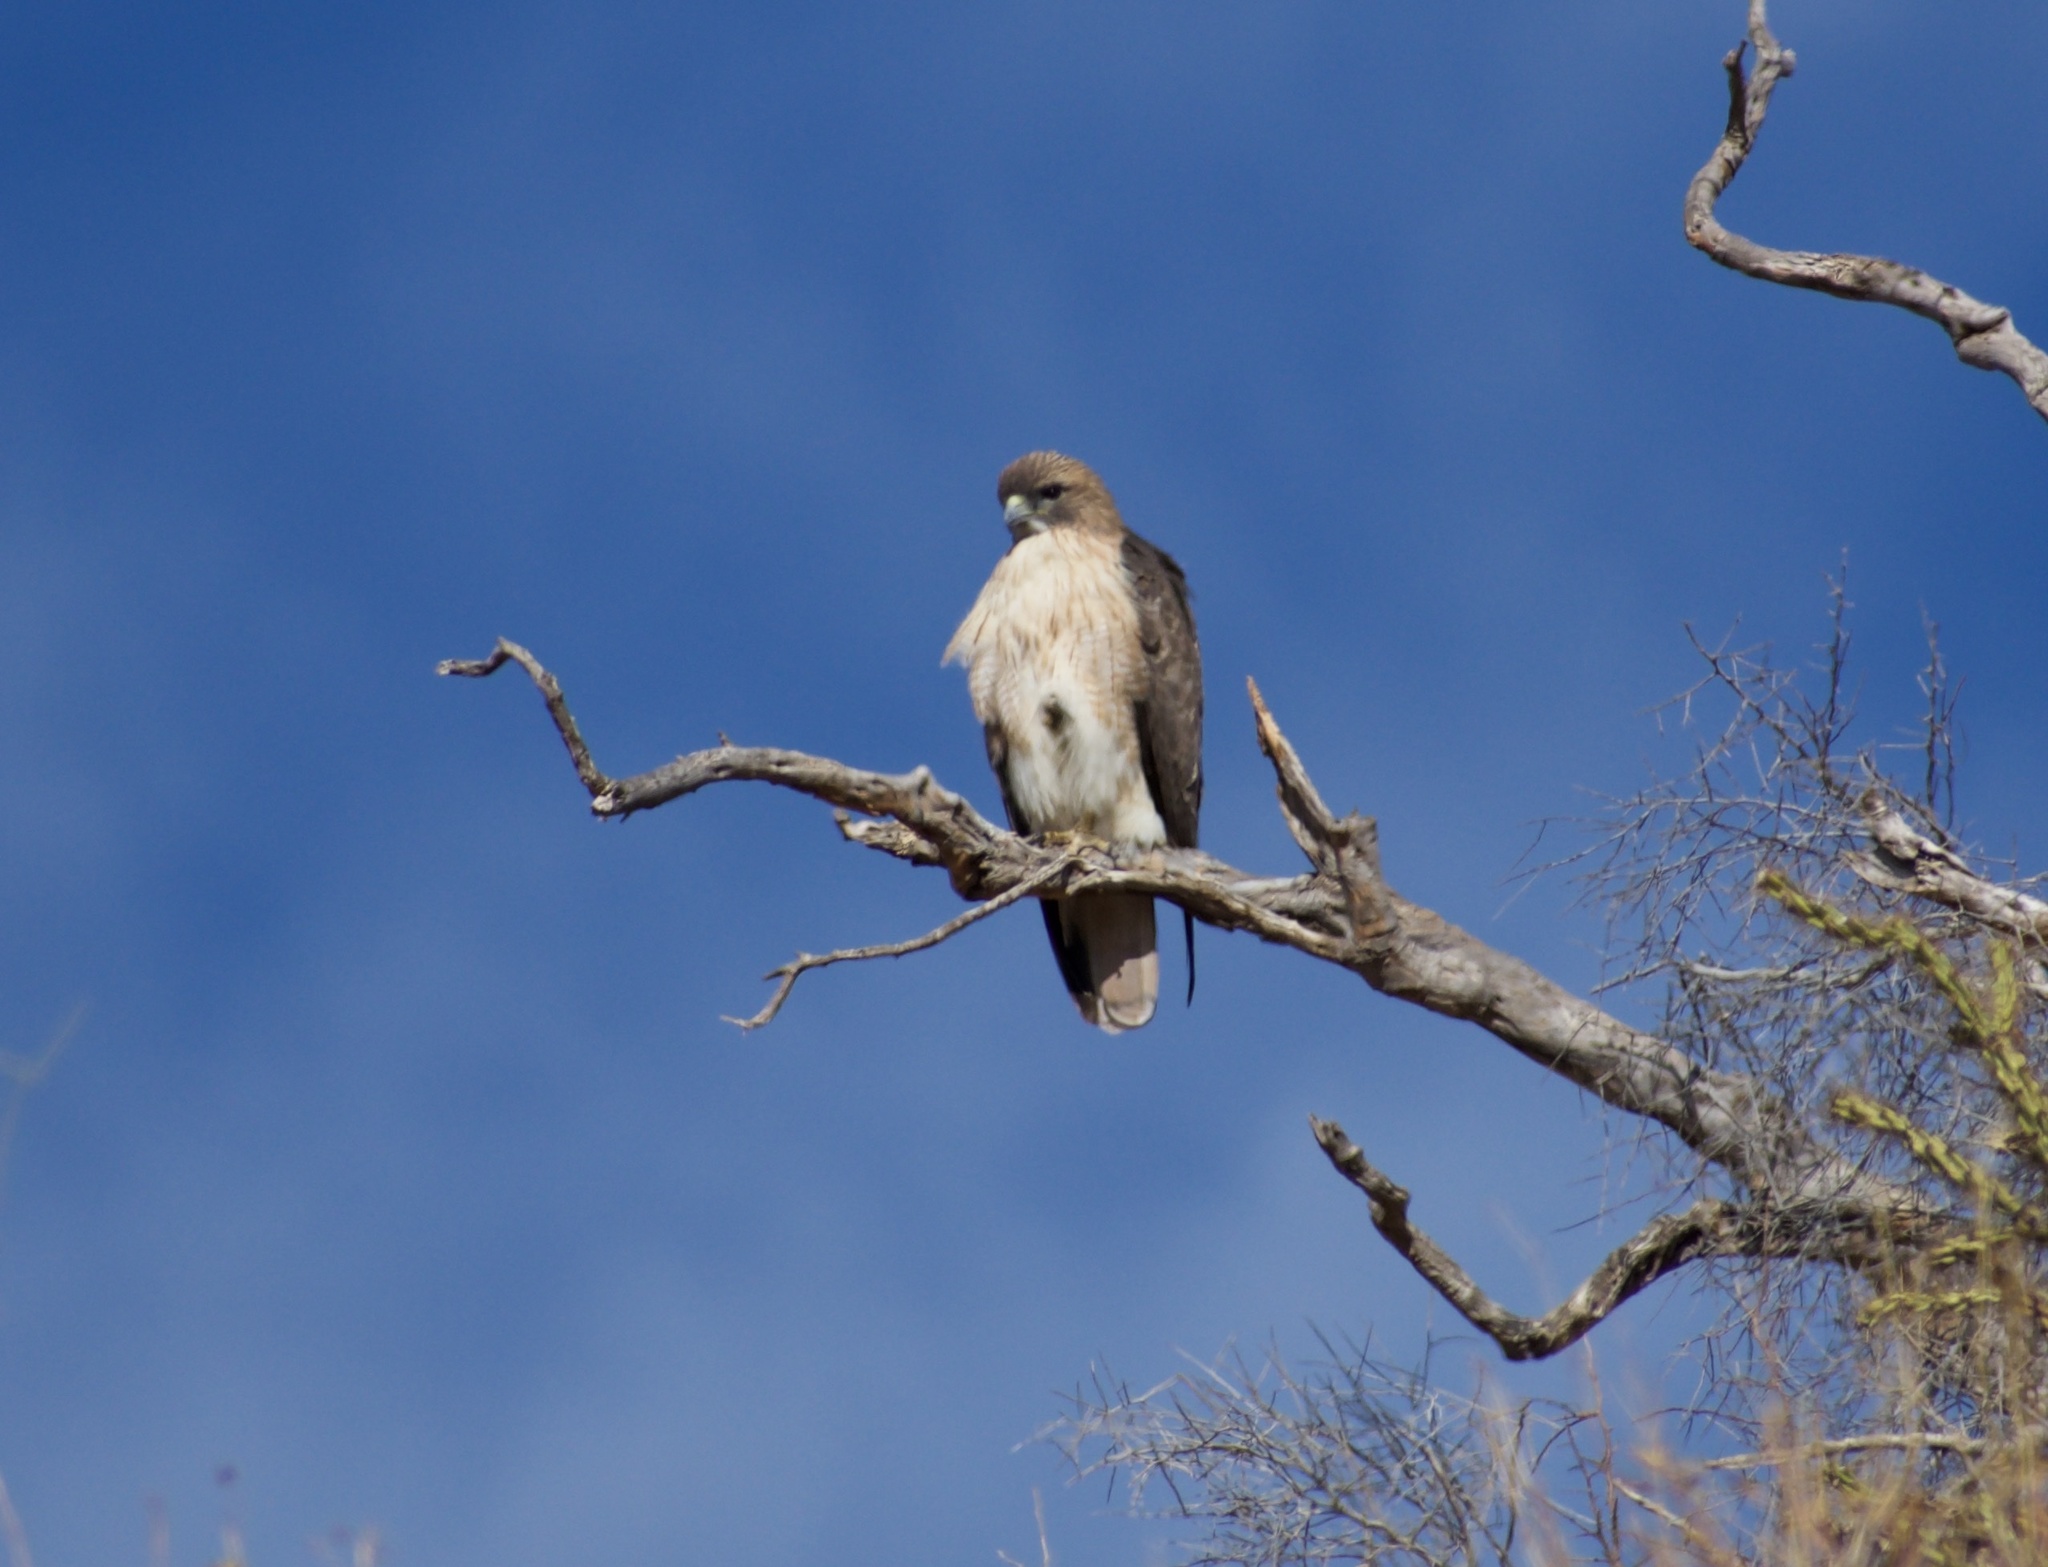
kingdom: Animalia
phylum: Chordata
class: Aves
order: Accipitriformes
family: Accipitridae
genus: Buteo
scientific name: Buteo jamaicensis
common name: Red-tailed hawk
